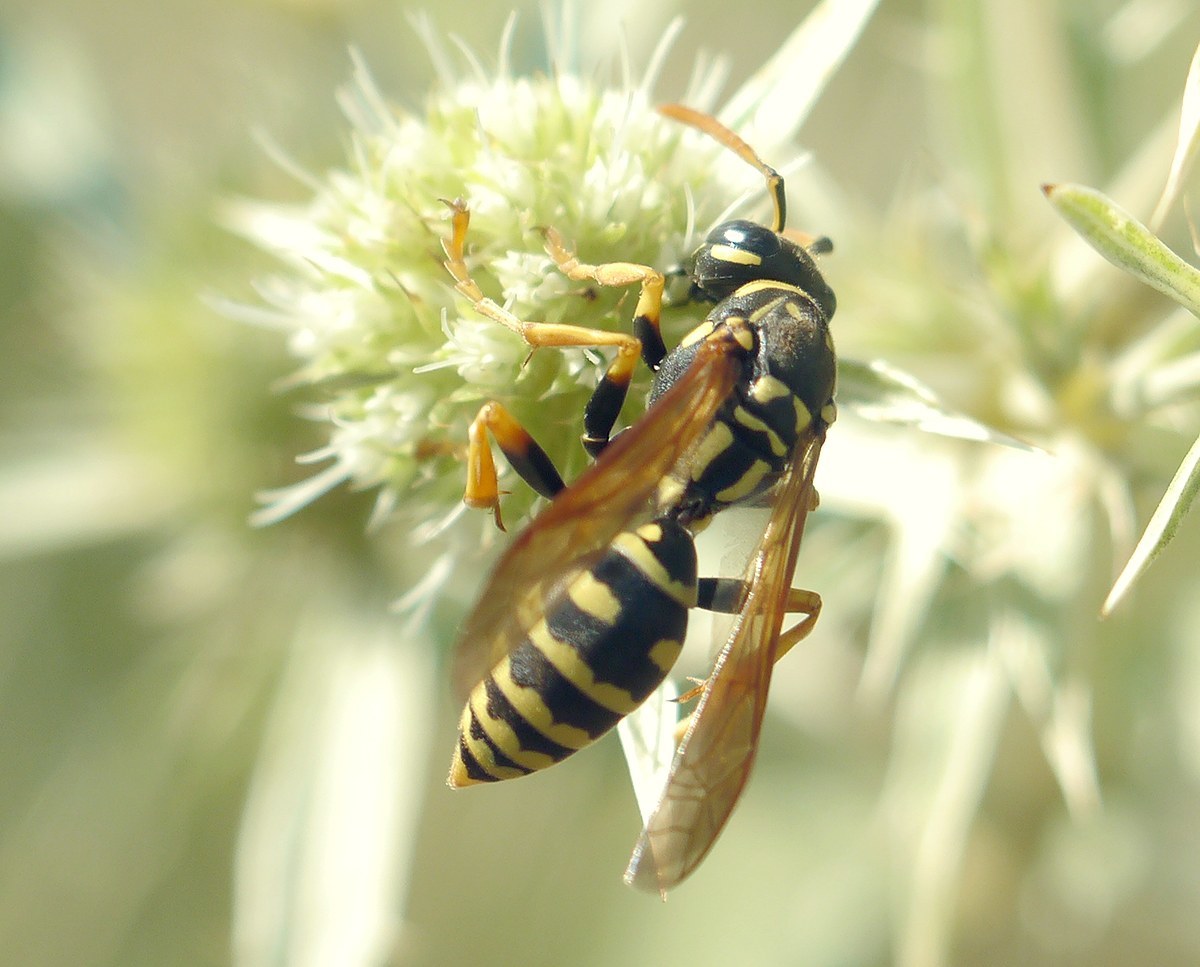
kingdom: Animalia
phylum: Arthropoda
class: Insecta
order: Hymenoptera
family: Eumenidae
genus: Polistes
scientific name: Polistes dominula
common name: Paper wasp
